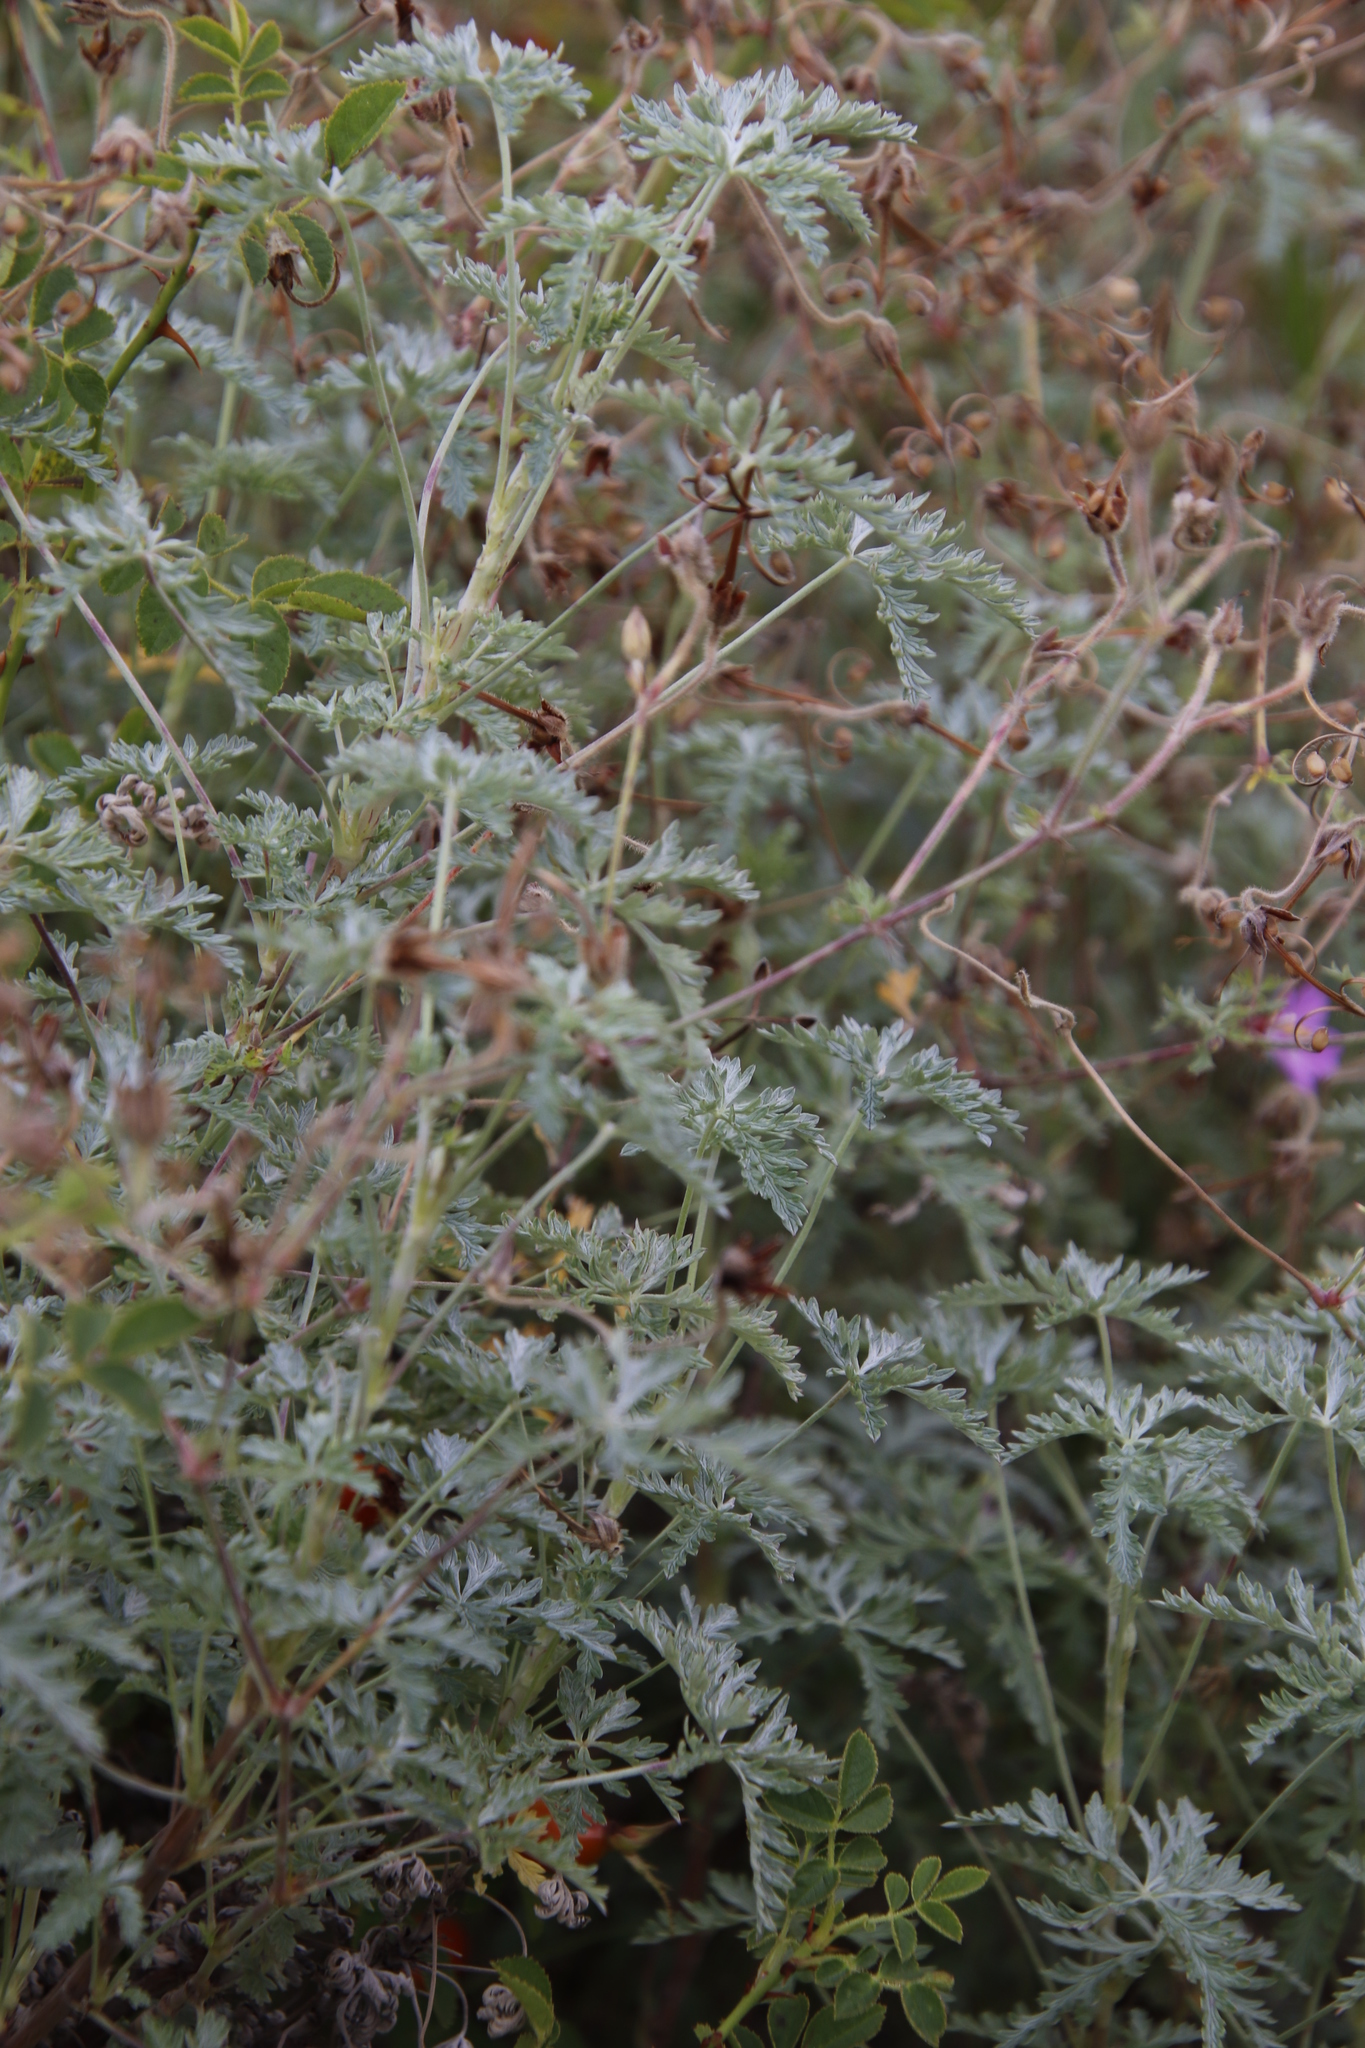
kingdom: Plantae
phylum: Tracheophyta
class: Magnoliopsida
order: Geraniales
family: Geraniaceae
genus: Geranium
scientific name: Geranium robustum
